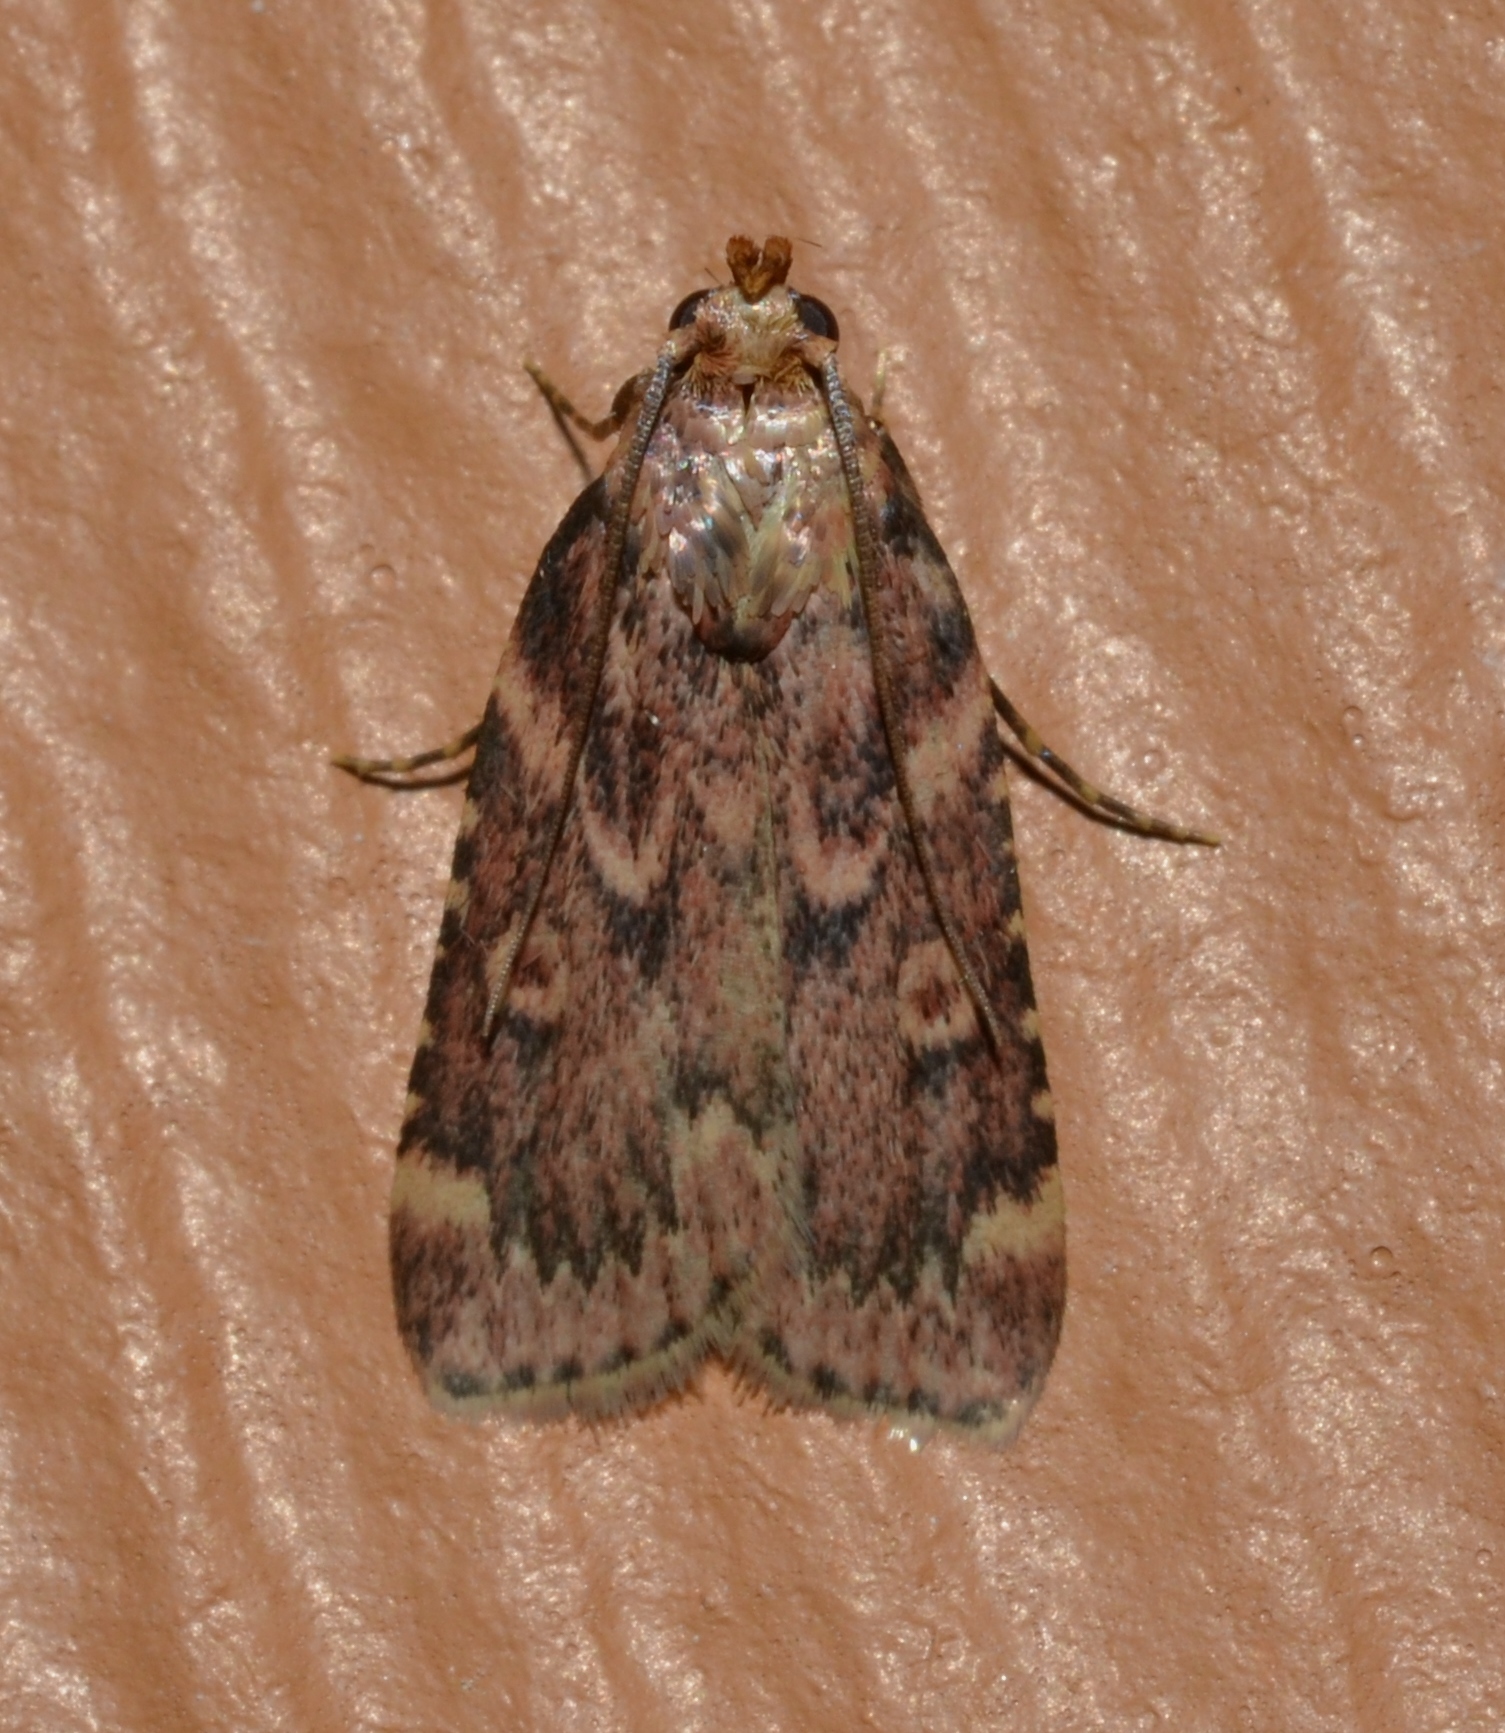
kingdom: Animalia
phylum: Arthropoda
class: Insecta
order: Lepidoptera
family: Pyralidae
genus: Aglossa
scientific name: Aglossa cuprina
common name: Grease moth
